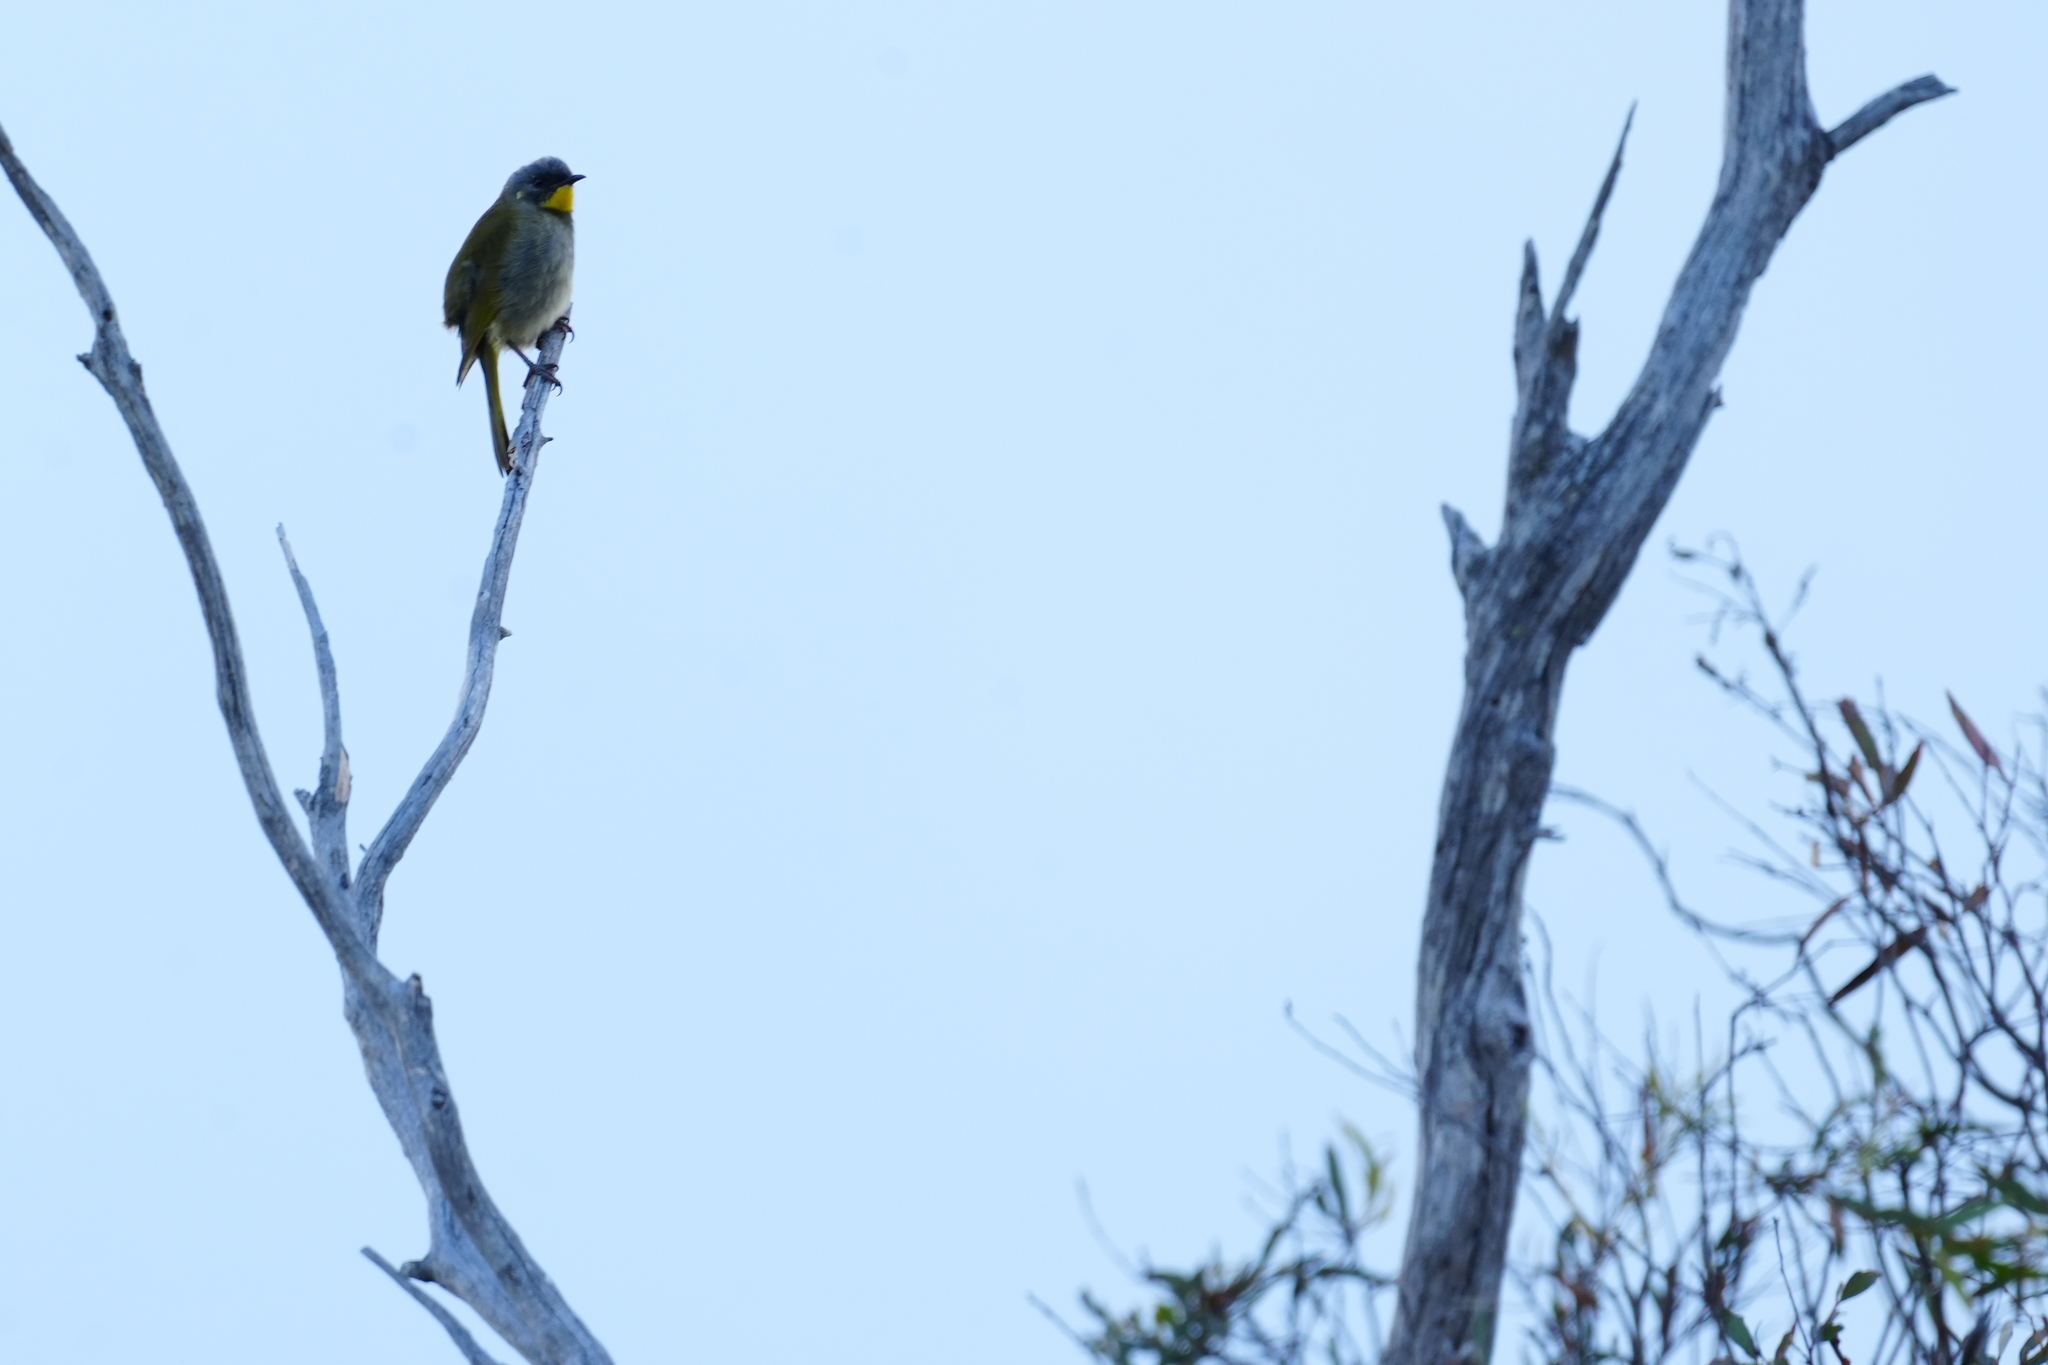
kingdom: Animalia
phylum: Chordata
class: Aves
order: Passeriformes
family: Meliphagidae
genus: Nesoptilotis
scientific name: Nesoptilotis flavicollis
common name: Yellow-throated honeyeater
